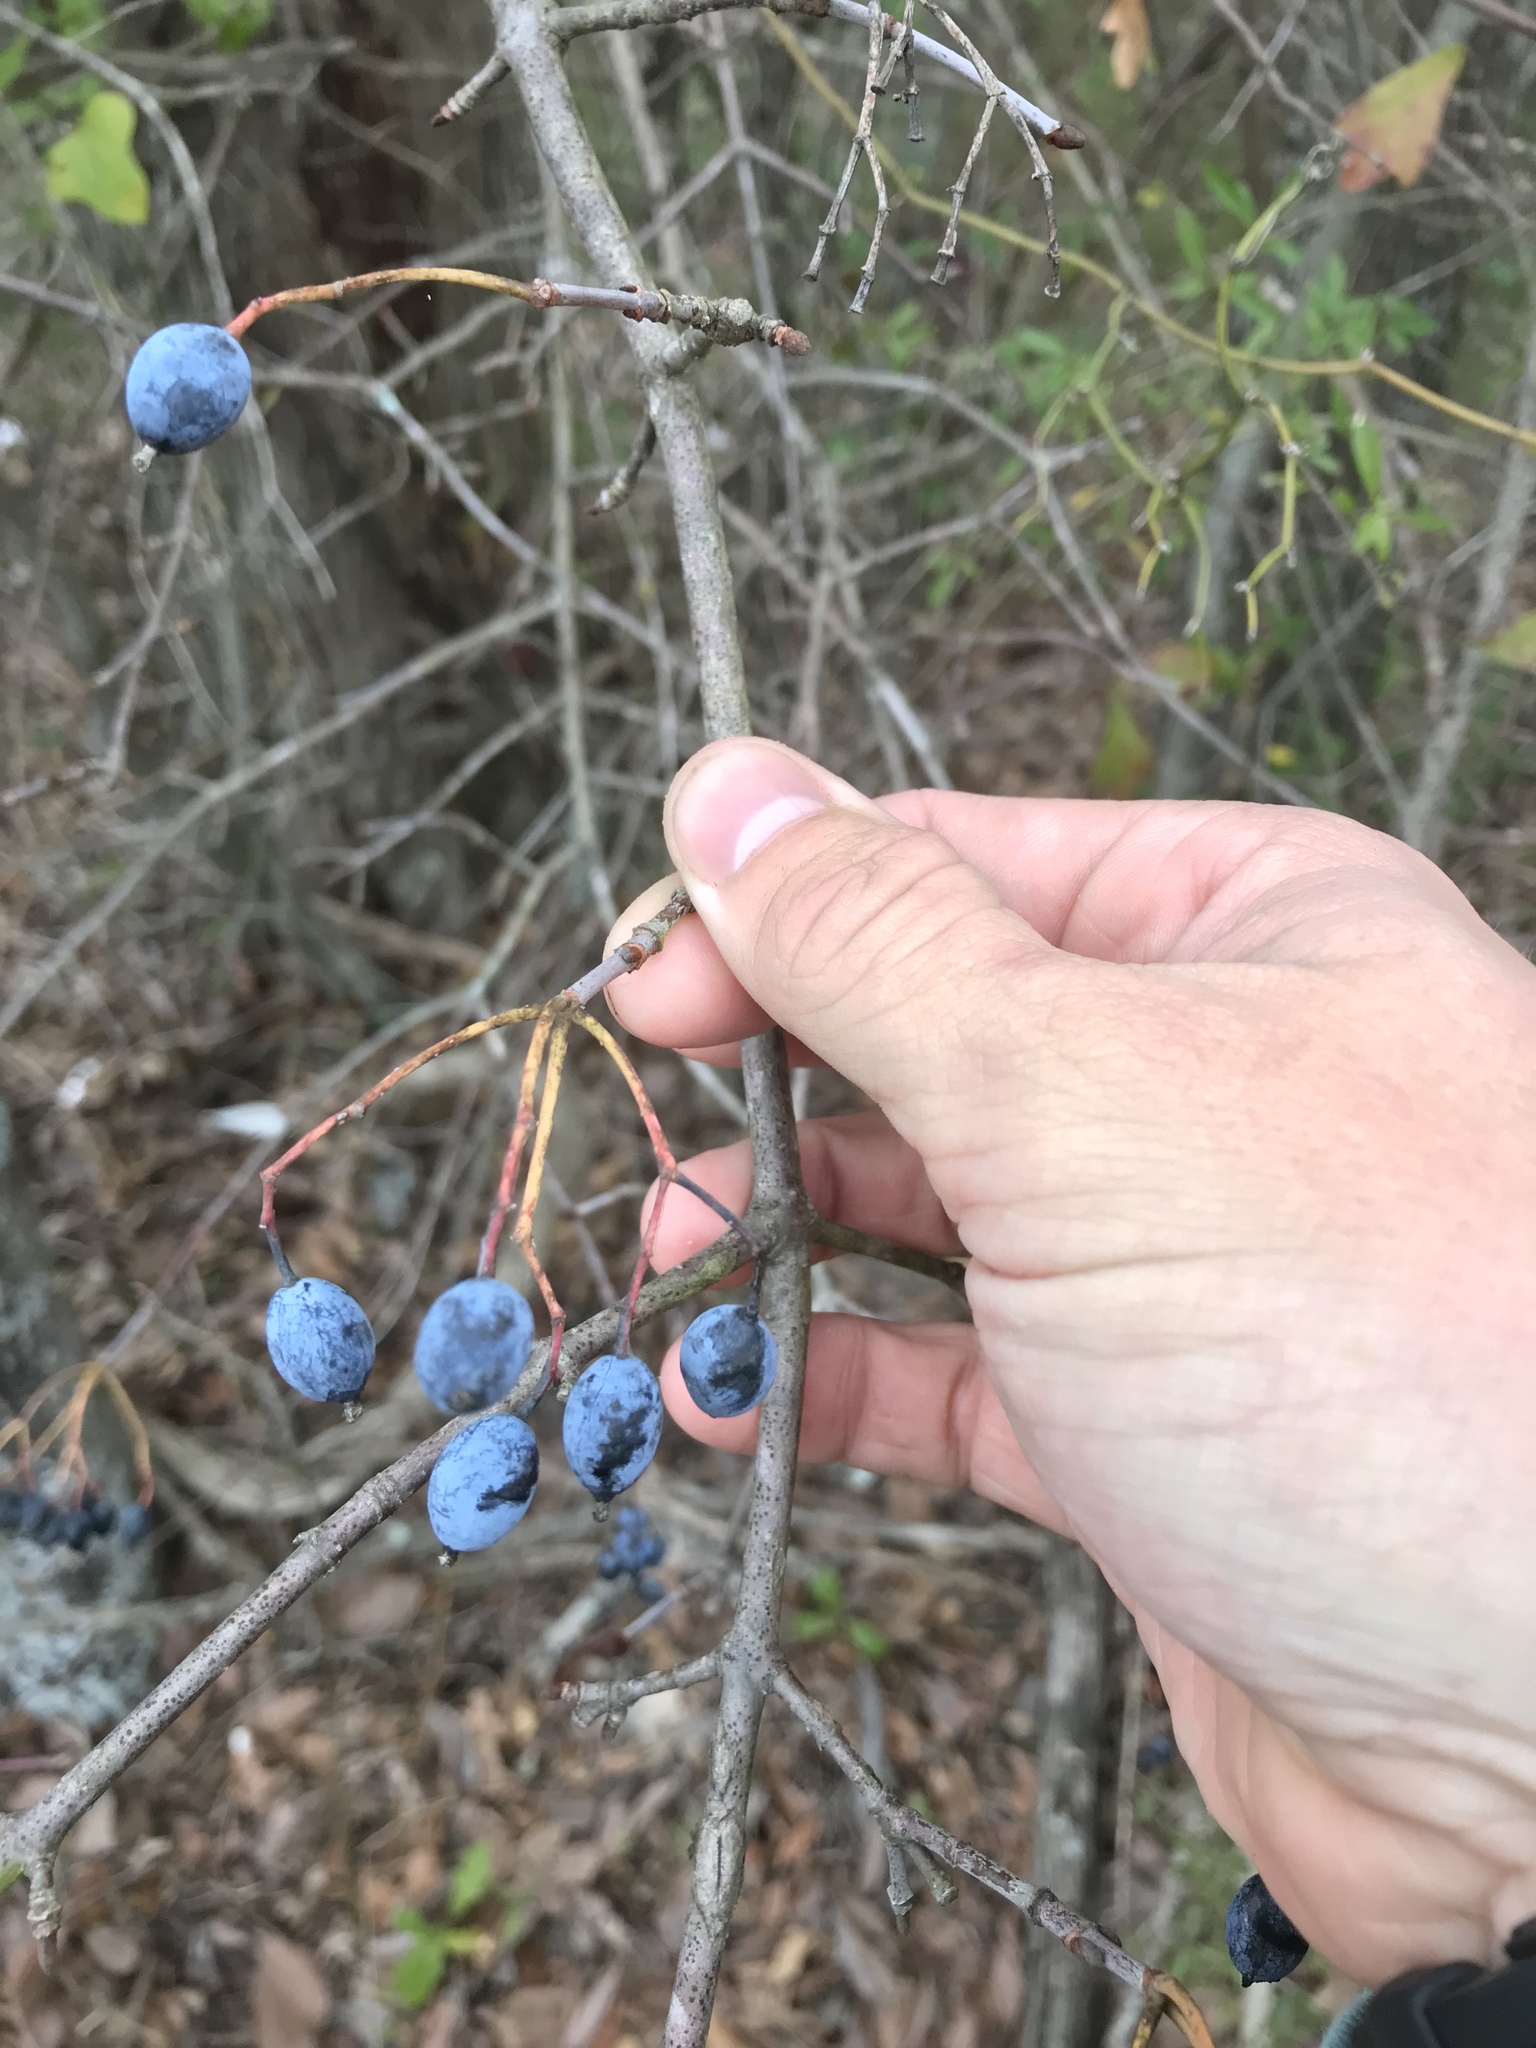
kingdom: Plantae
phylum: Tracheophyta
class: Magnoliopsida
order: Dipsacales
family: Viburnaceae
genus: Viburnum
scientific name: Viburnum rufidulum
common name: Blue haw
